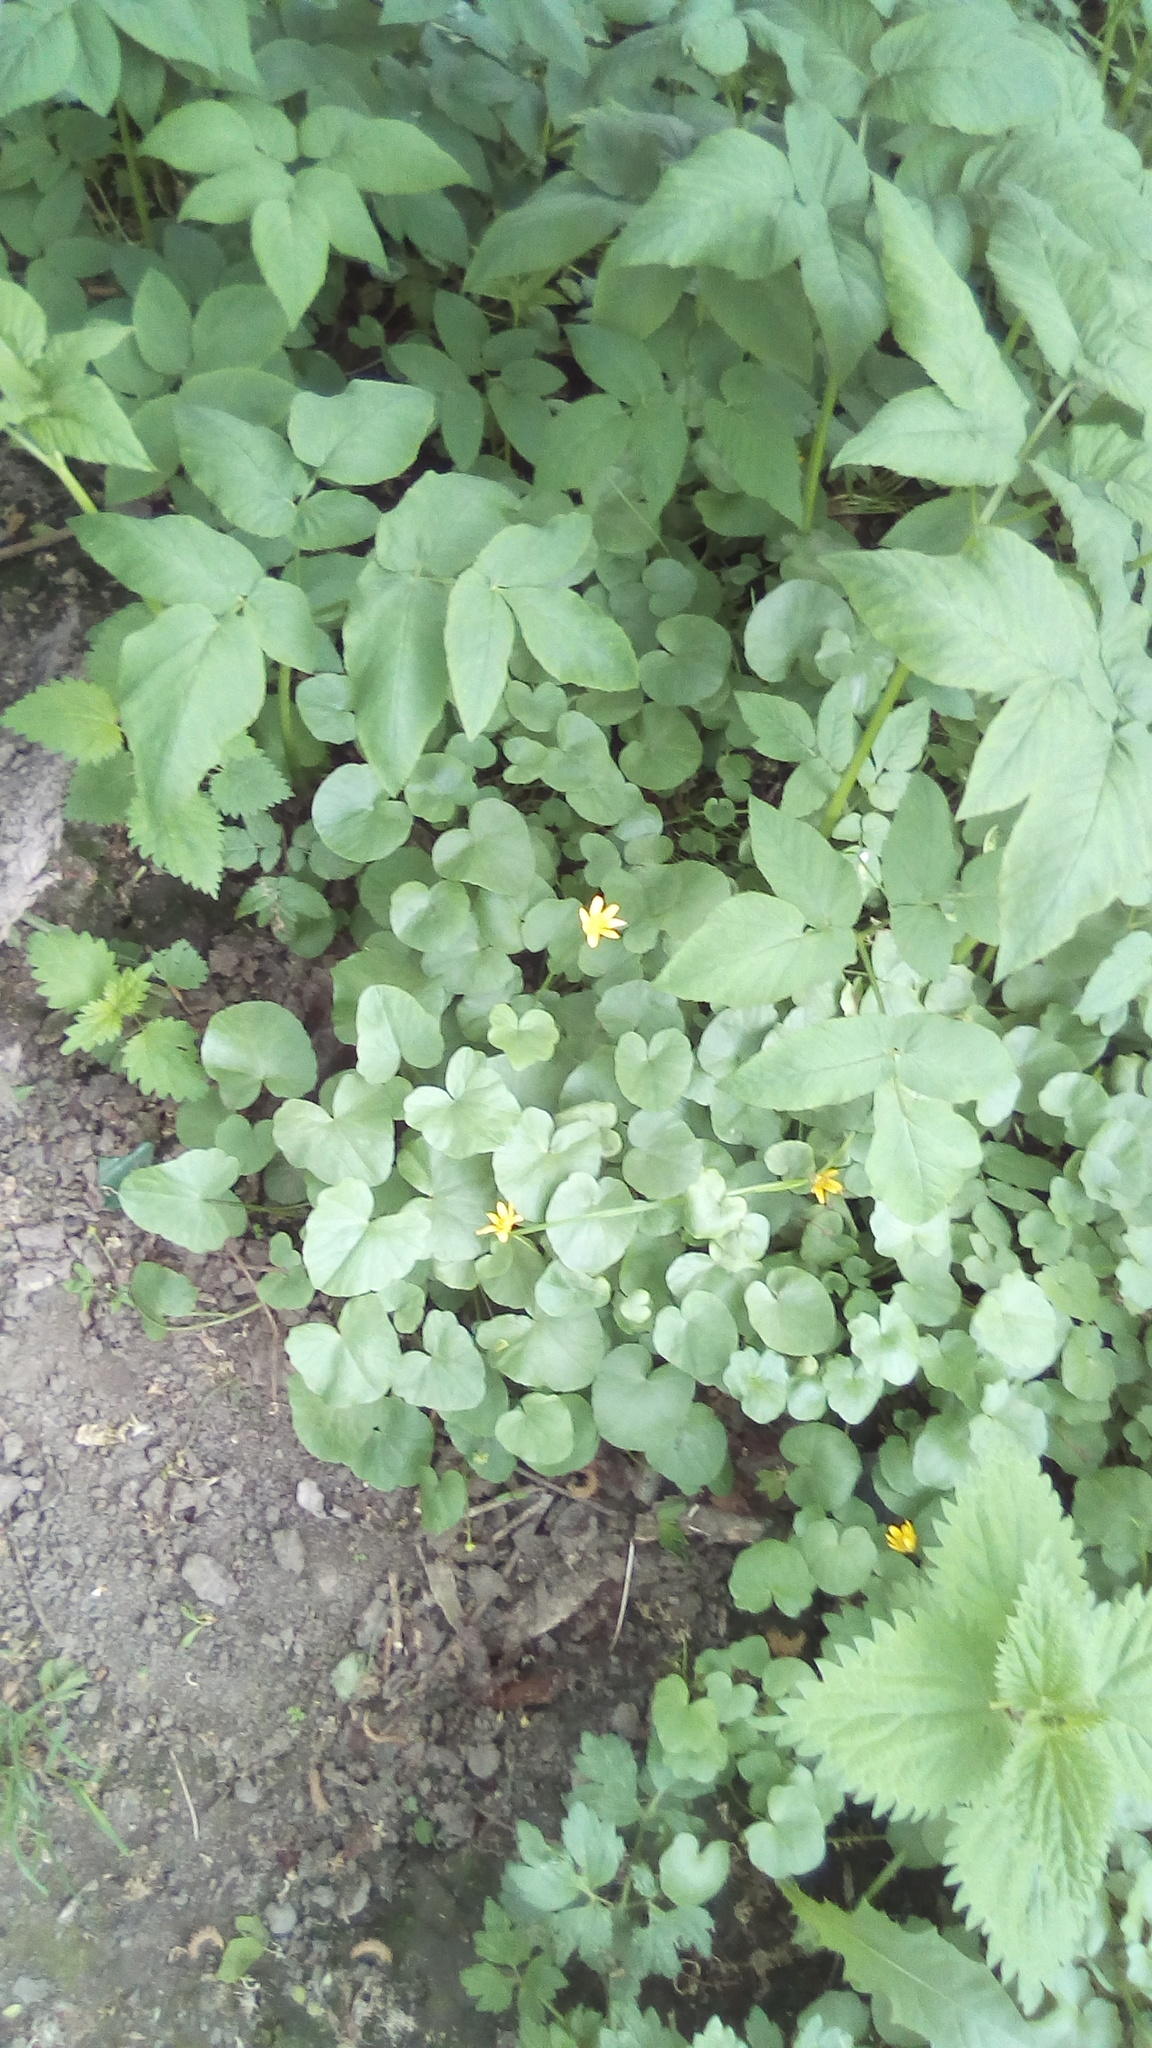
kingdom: Plantae
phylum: Tracheophyta
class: Magnoliopsida
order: Ranunculales
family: Ranunculaceae
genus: Ficaria
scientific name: Ficaria verna
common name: Lesser celandine
